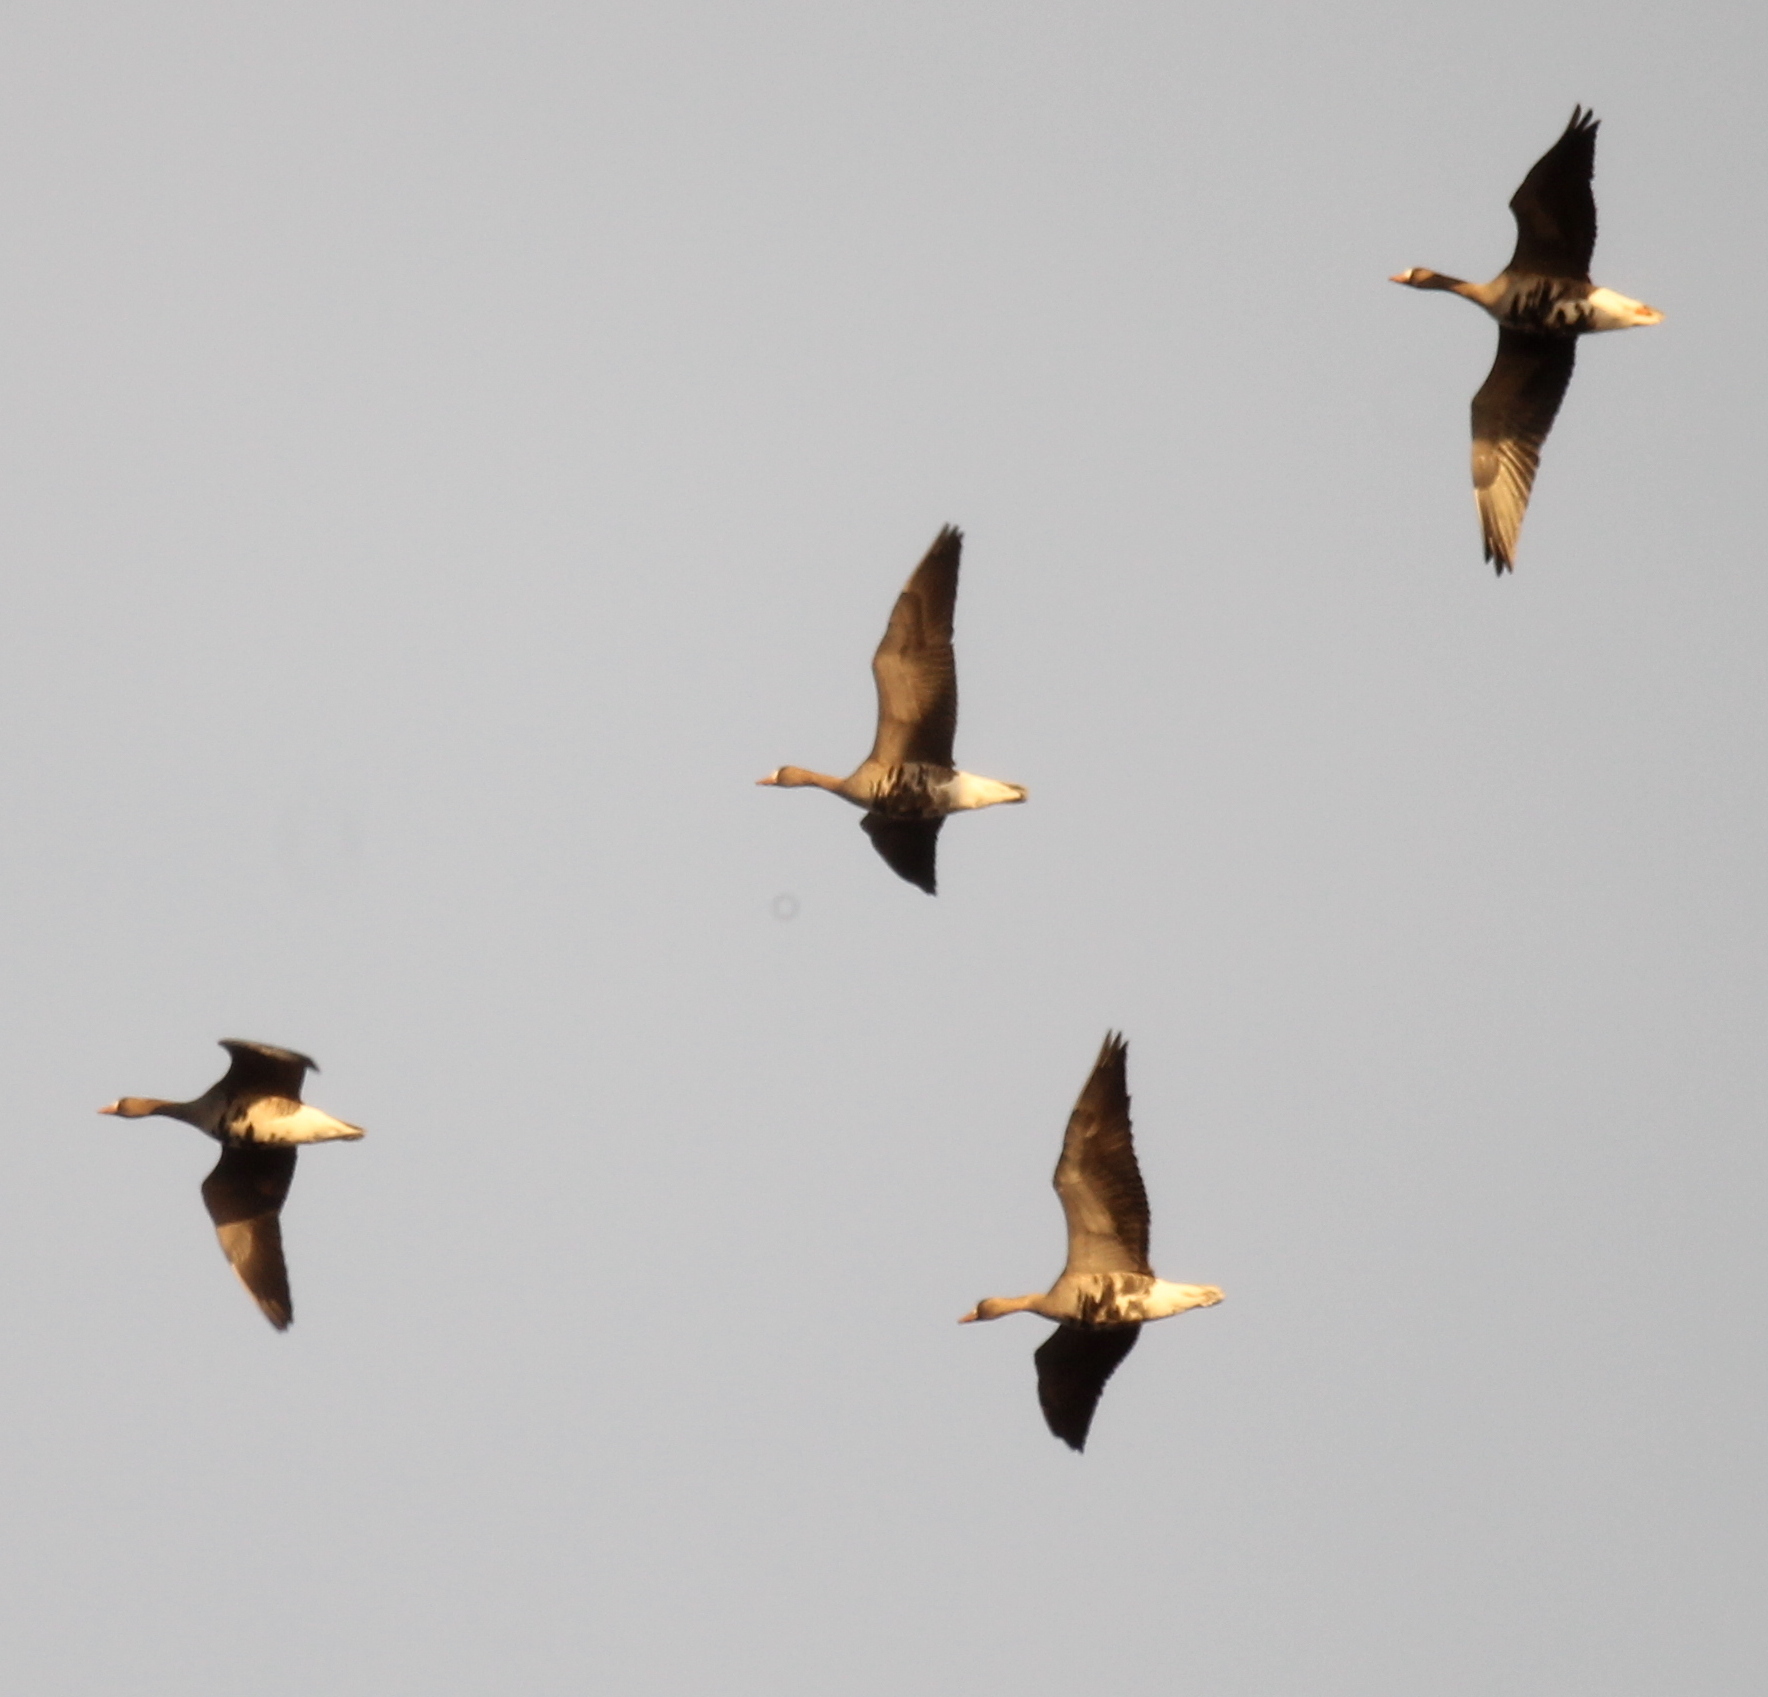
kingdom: Animalia
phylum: Chordata
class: Aves
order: Anseriformes
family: Anatidae
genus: Anser
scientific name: Anser albifrons
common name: Greater white-fronted goose
